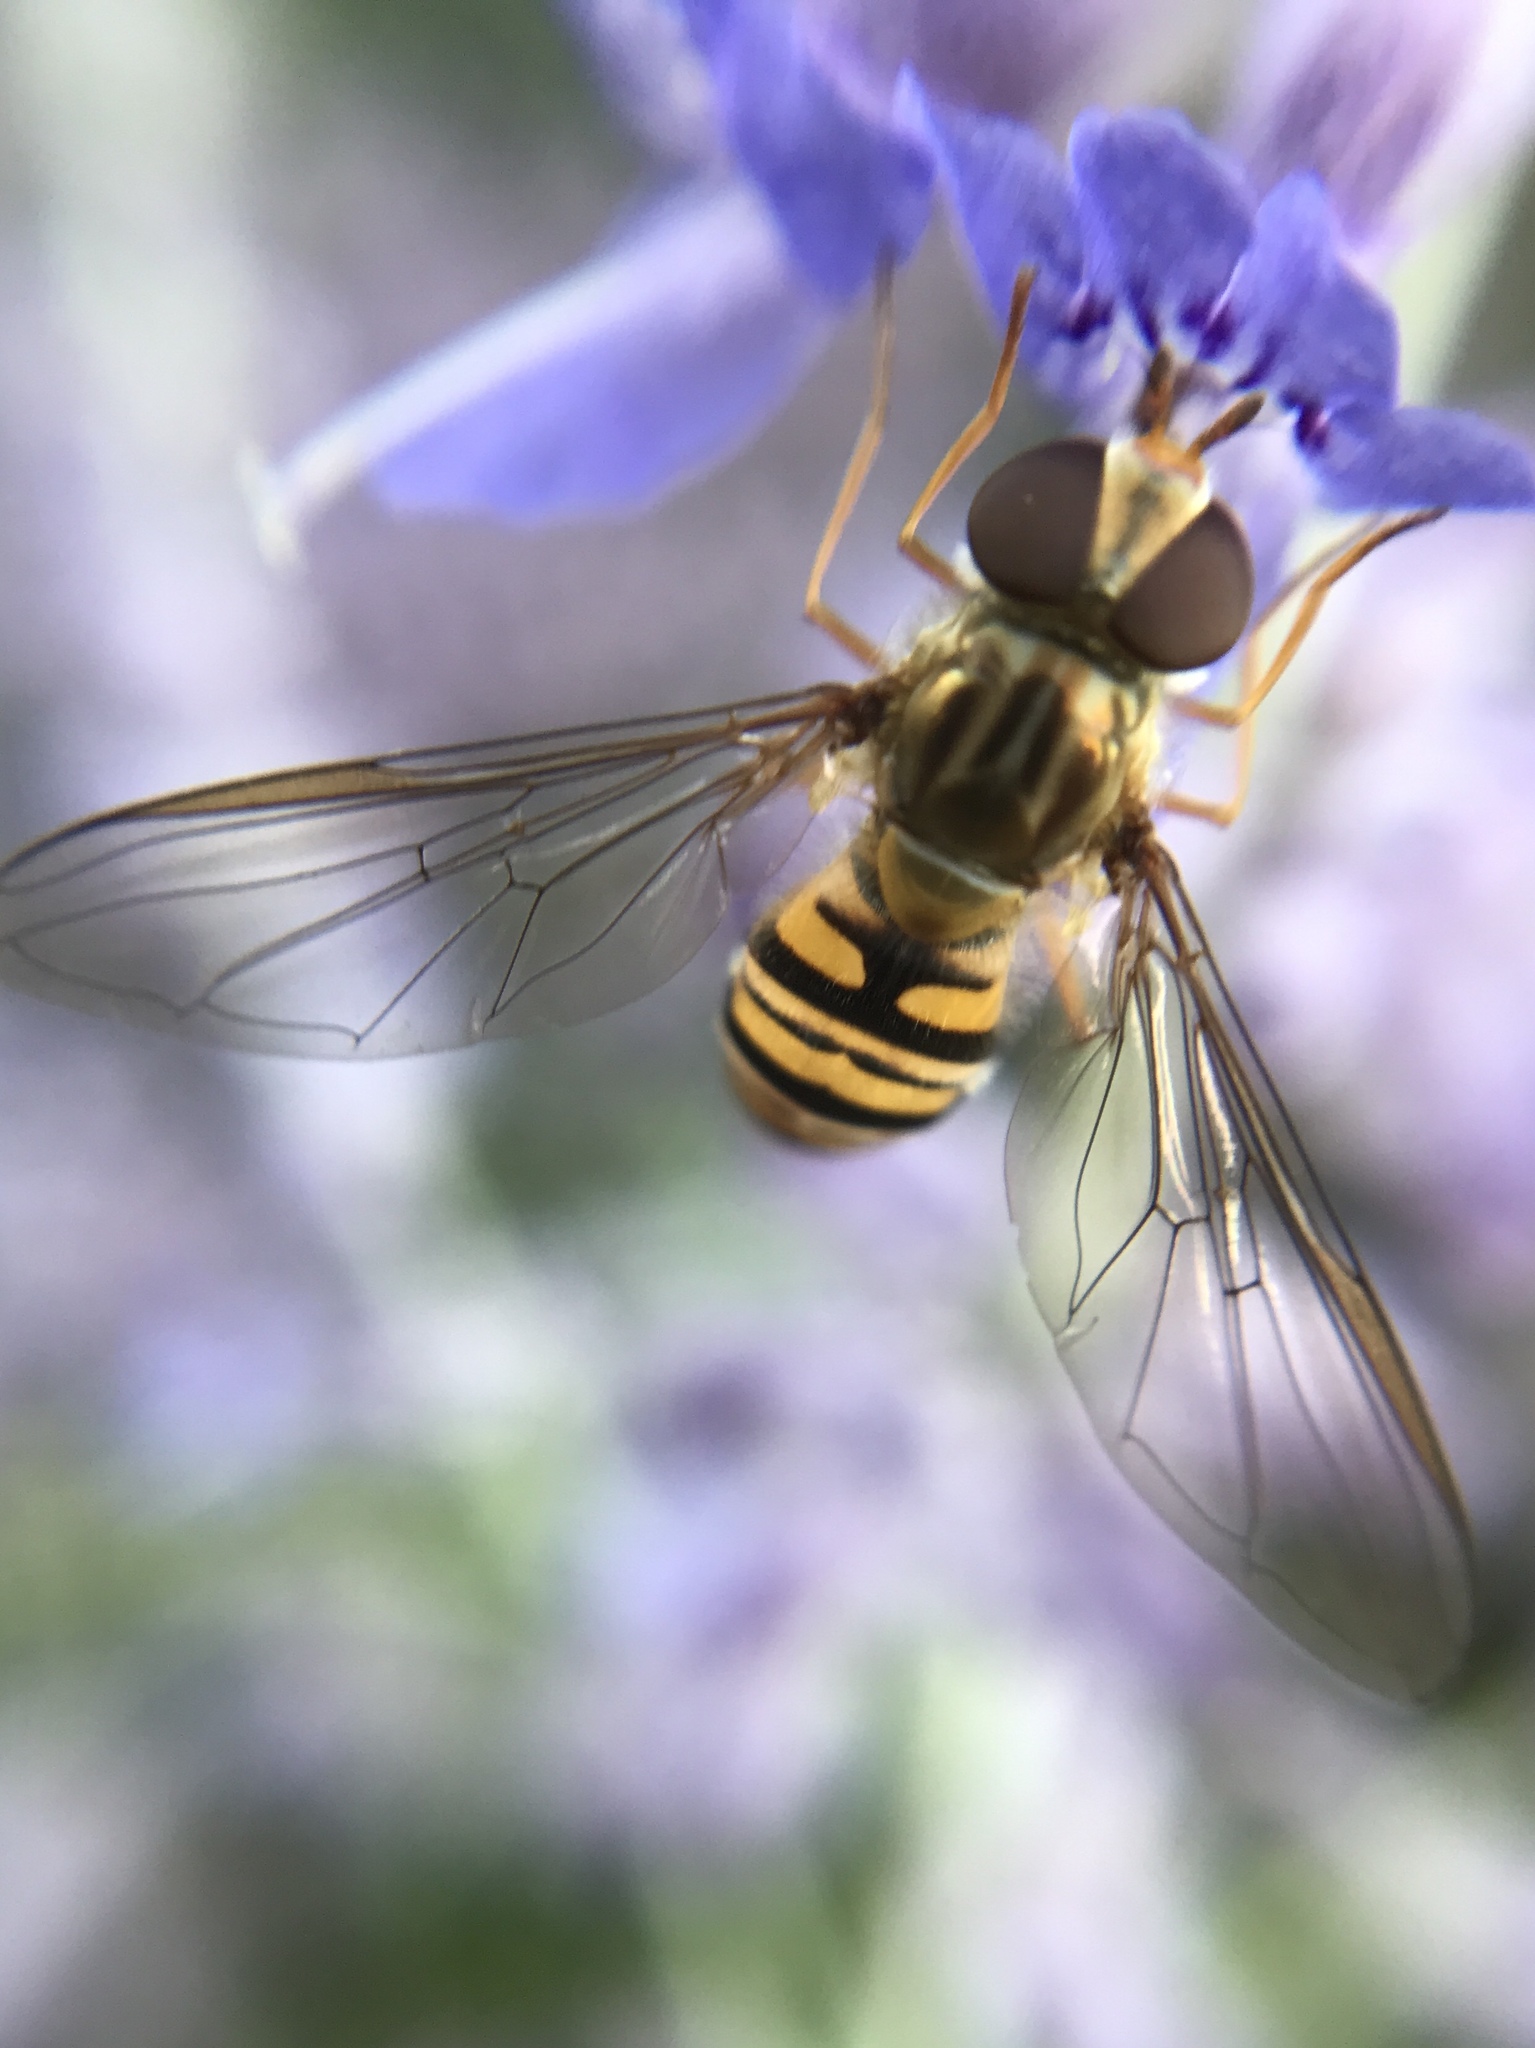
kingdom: Animalia
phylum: Arthropoda
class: Insecta
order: Diptera
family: Syrphidae
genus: Episyrphus
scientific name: Episyrphus balteatus
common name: Marmalade hoverfly
